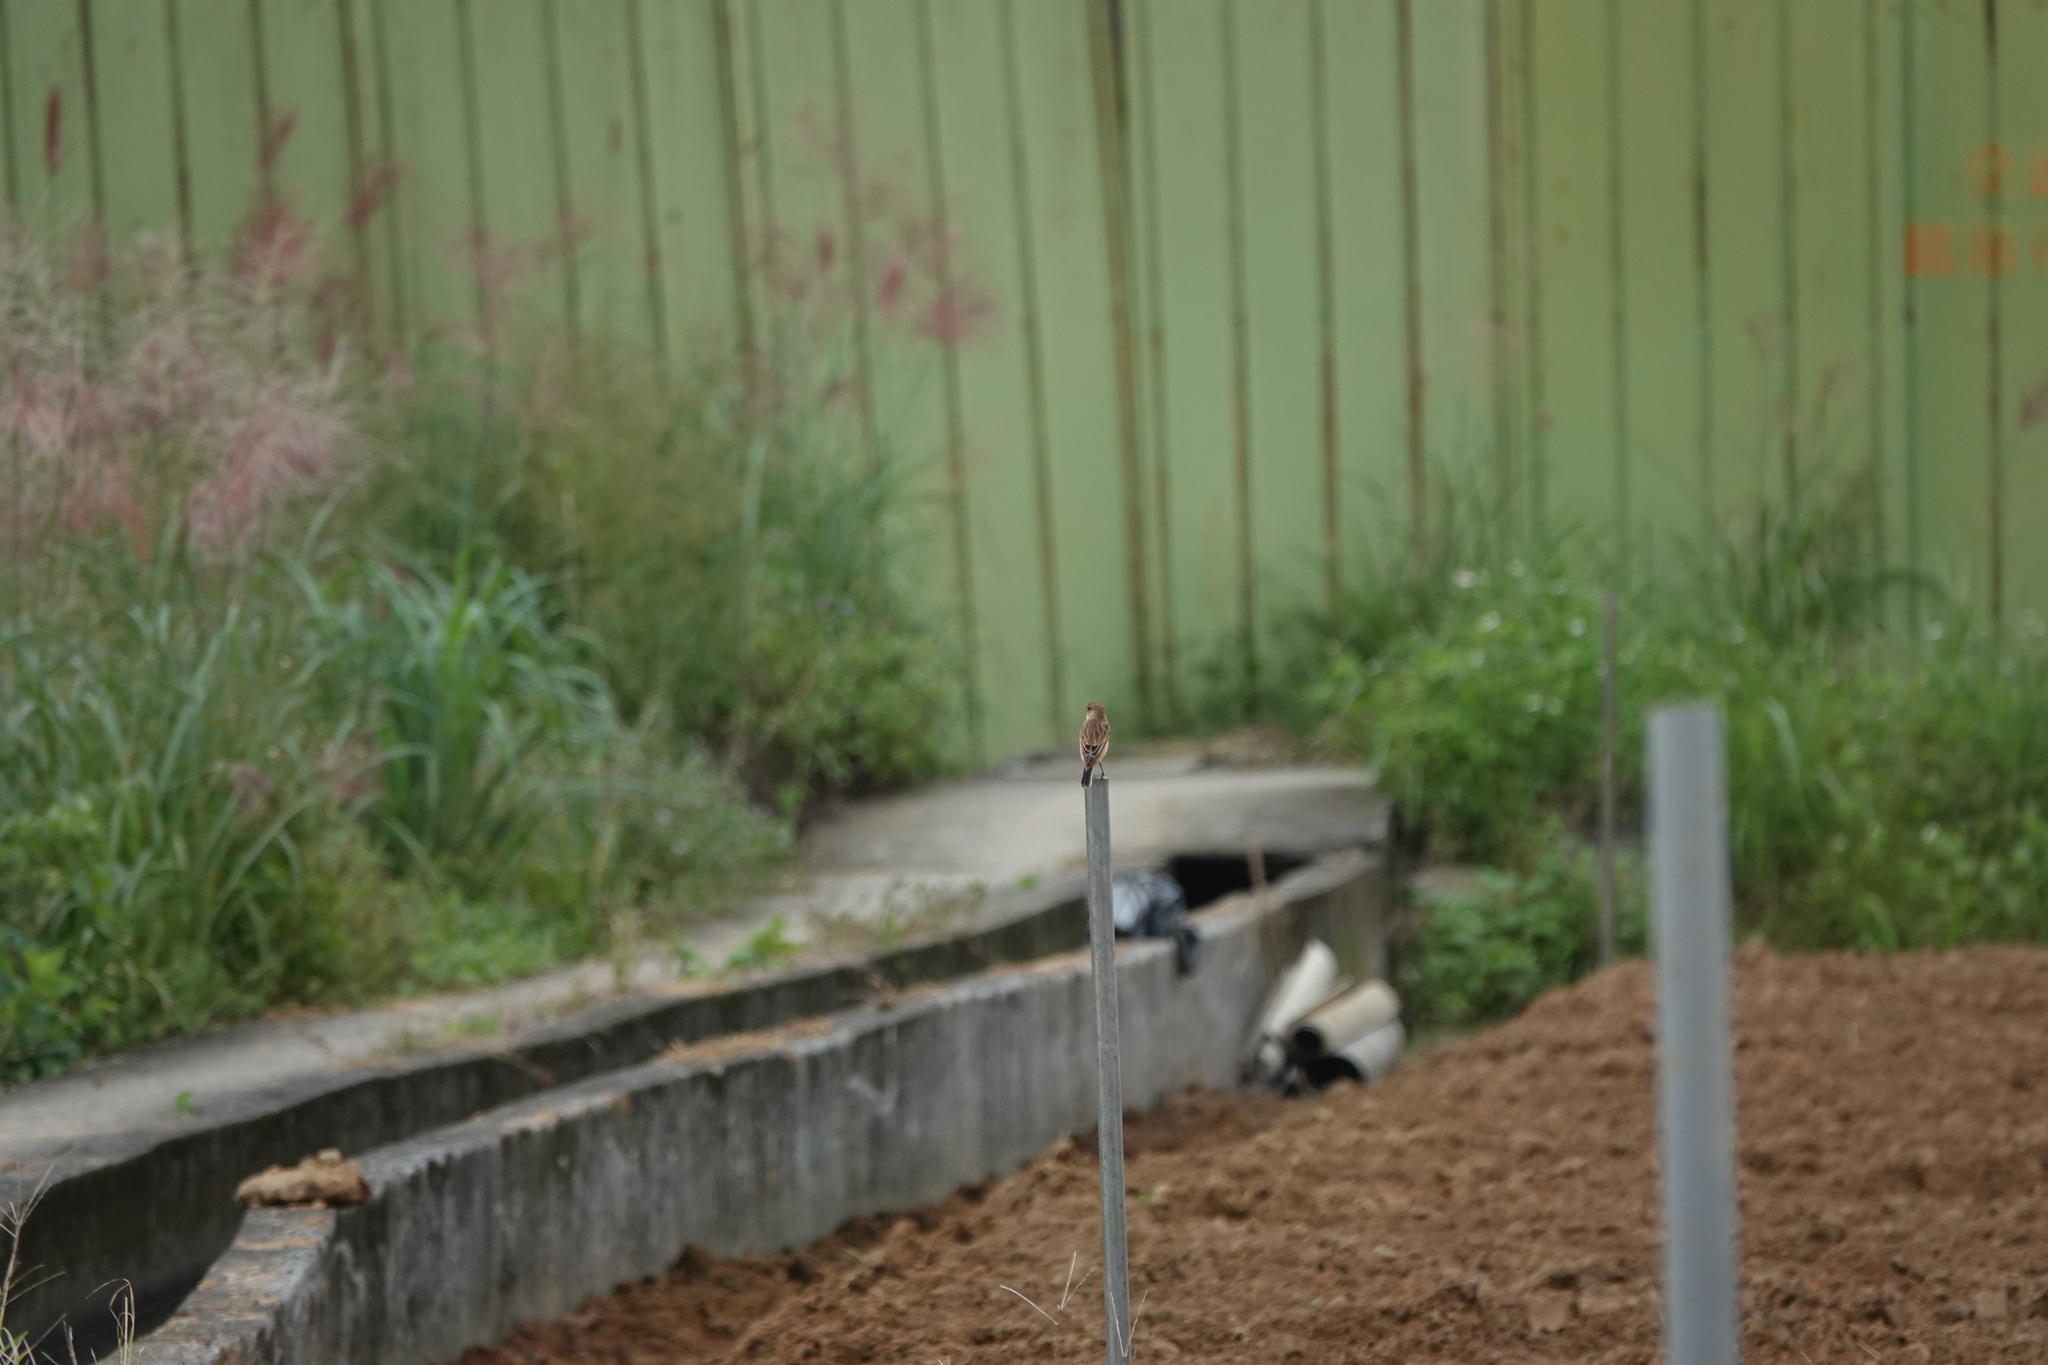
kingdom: Animalia
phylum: Chordata
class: Aves
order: Passeriformes
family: Muscicapidae
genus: Saxicola
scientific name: Saxicola stejnegeri
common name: Stejneger's stonechat
